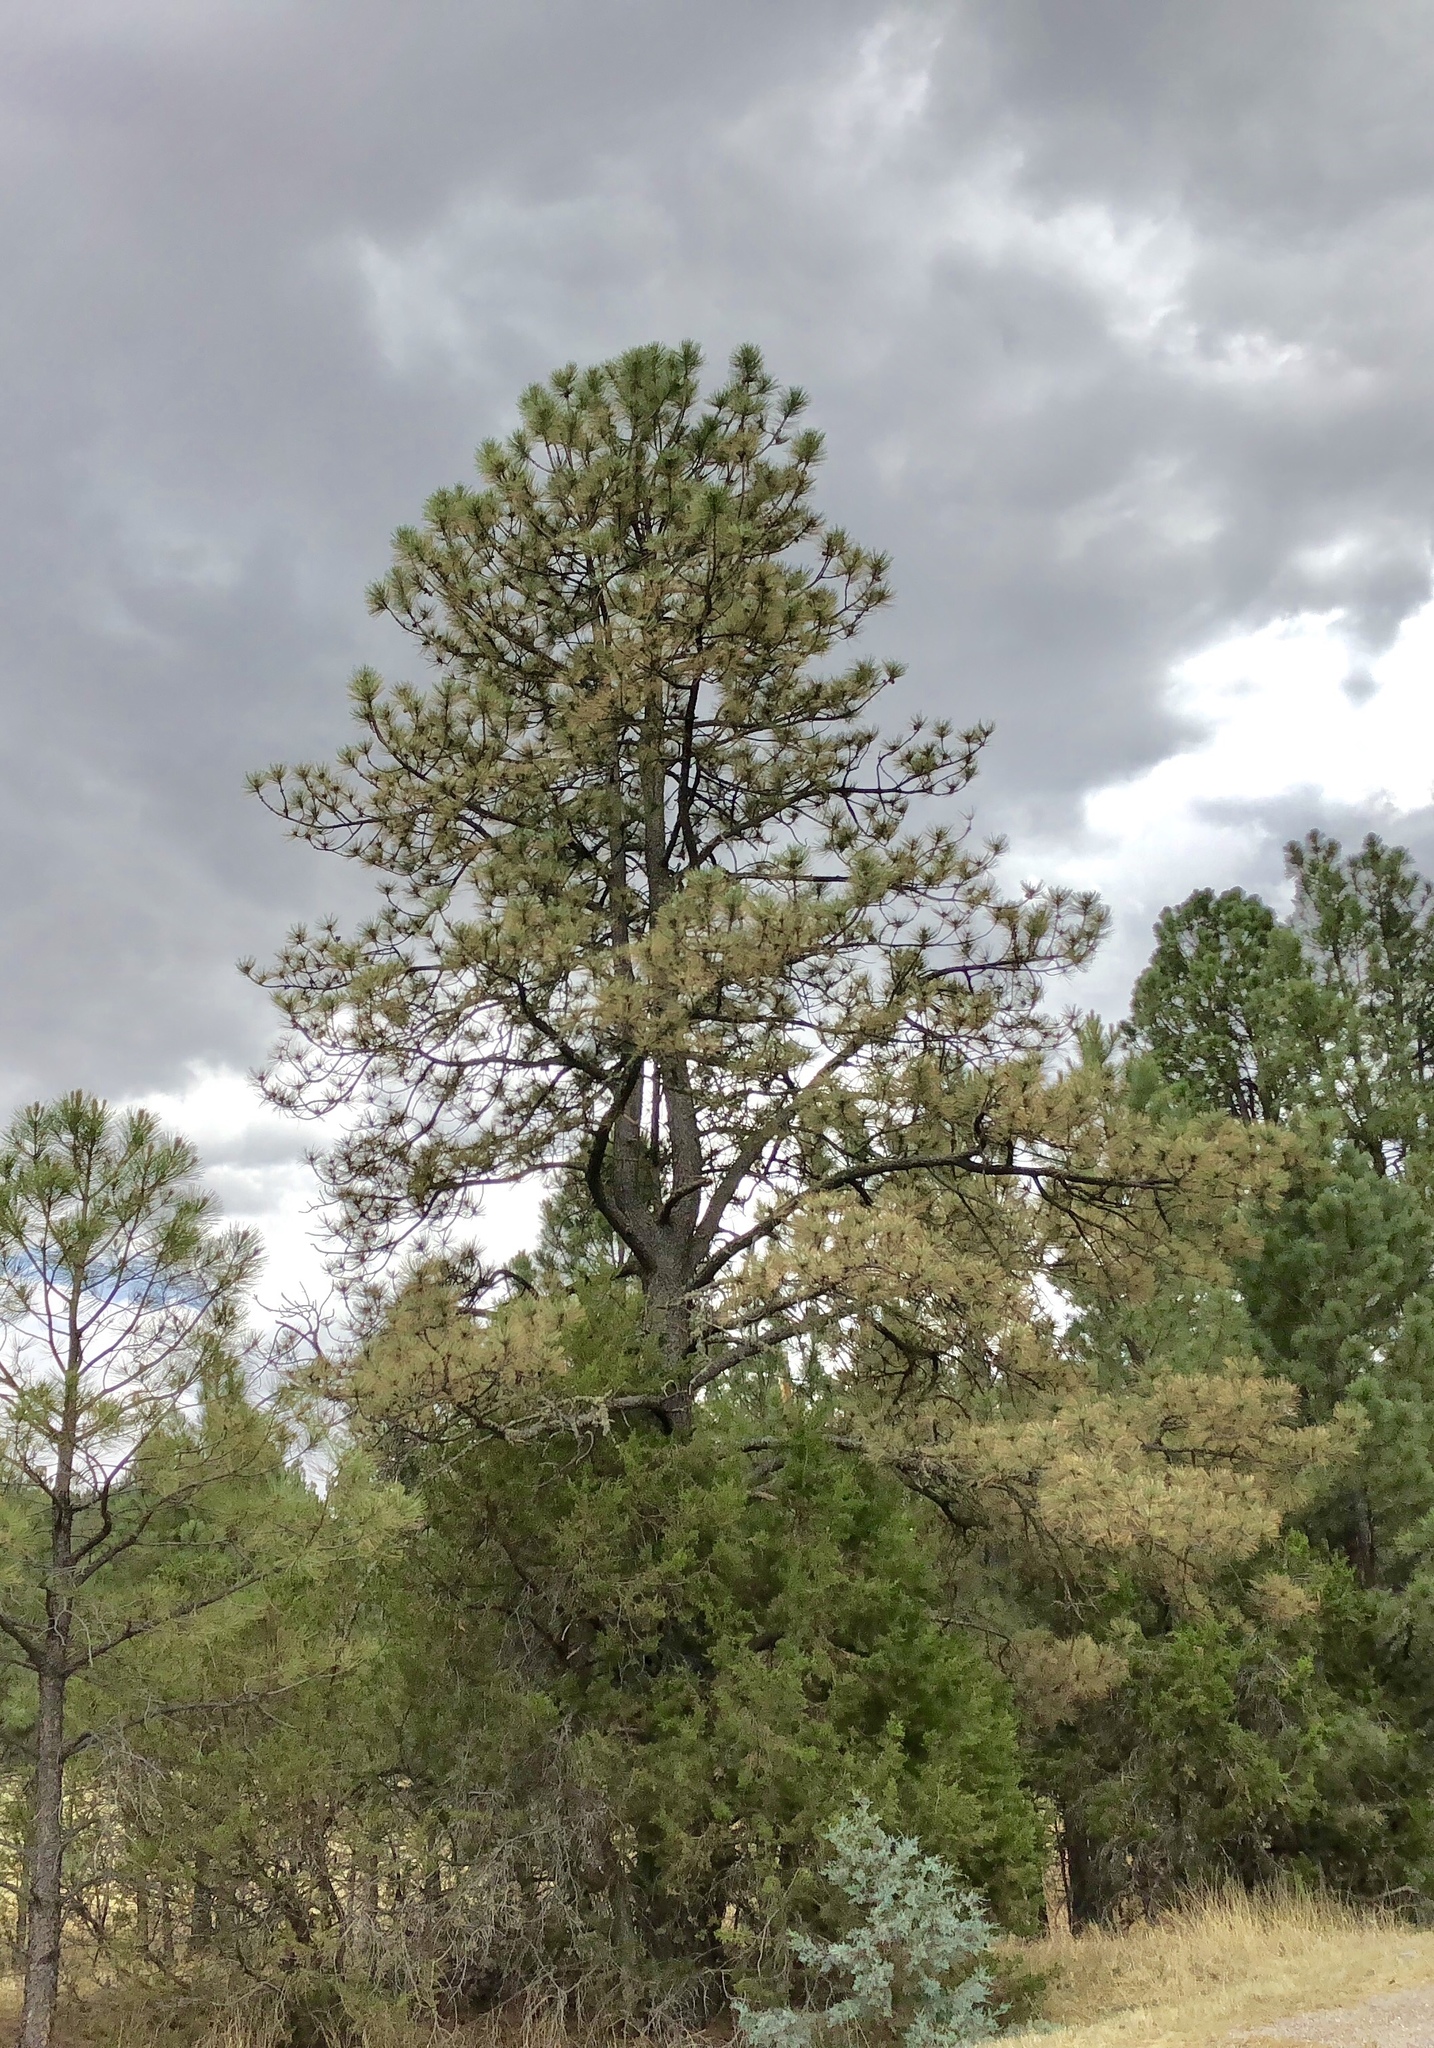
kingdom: Plantae
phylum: Tracheophyta
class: Pinopsida
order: Pinales
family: Pinaceae
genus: Pinus
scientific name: Pinus ponderosa
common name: Western yellow-pine
